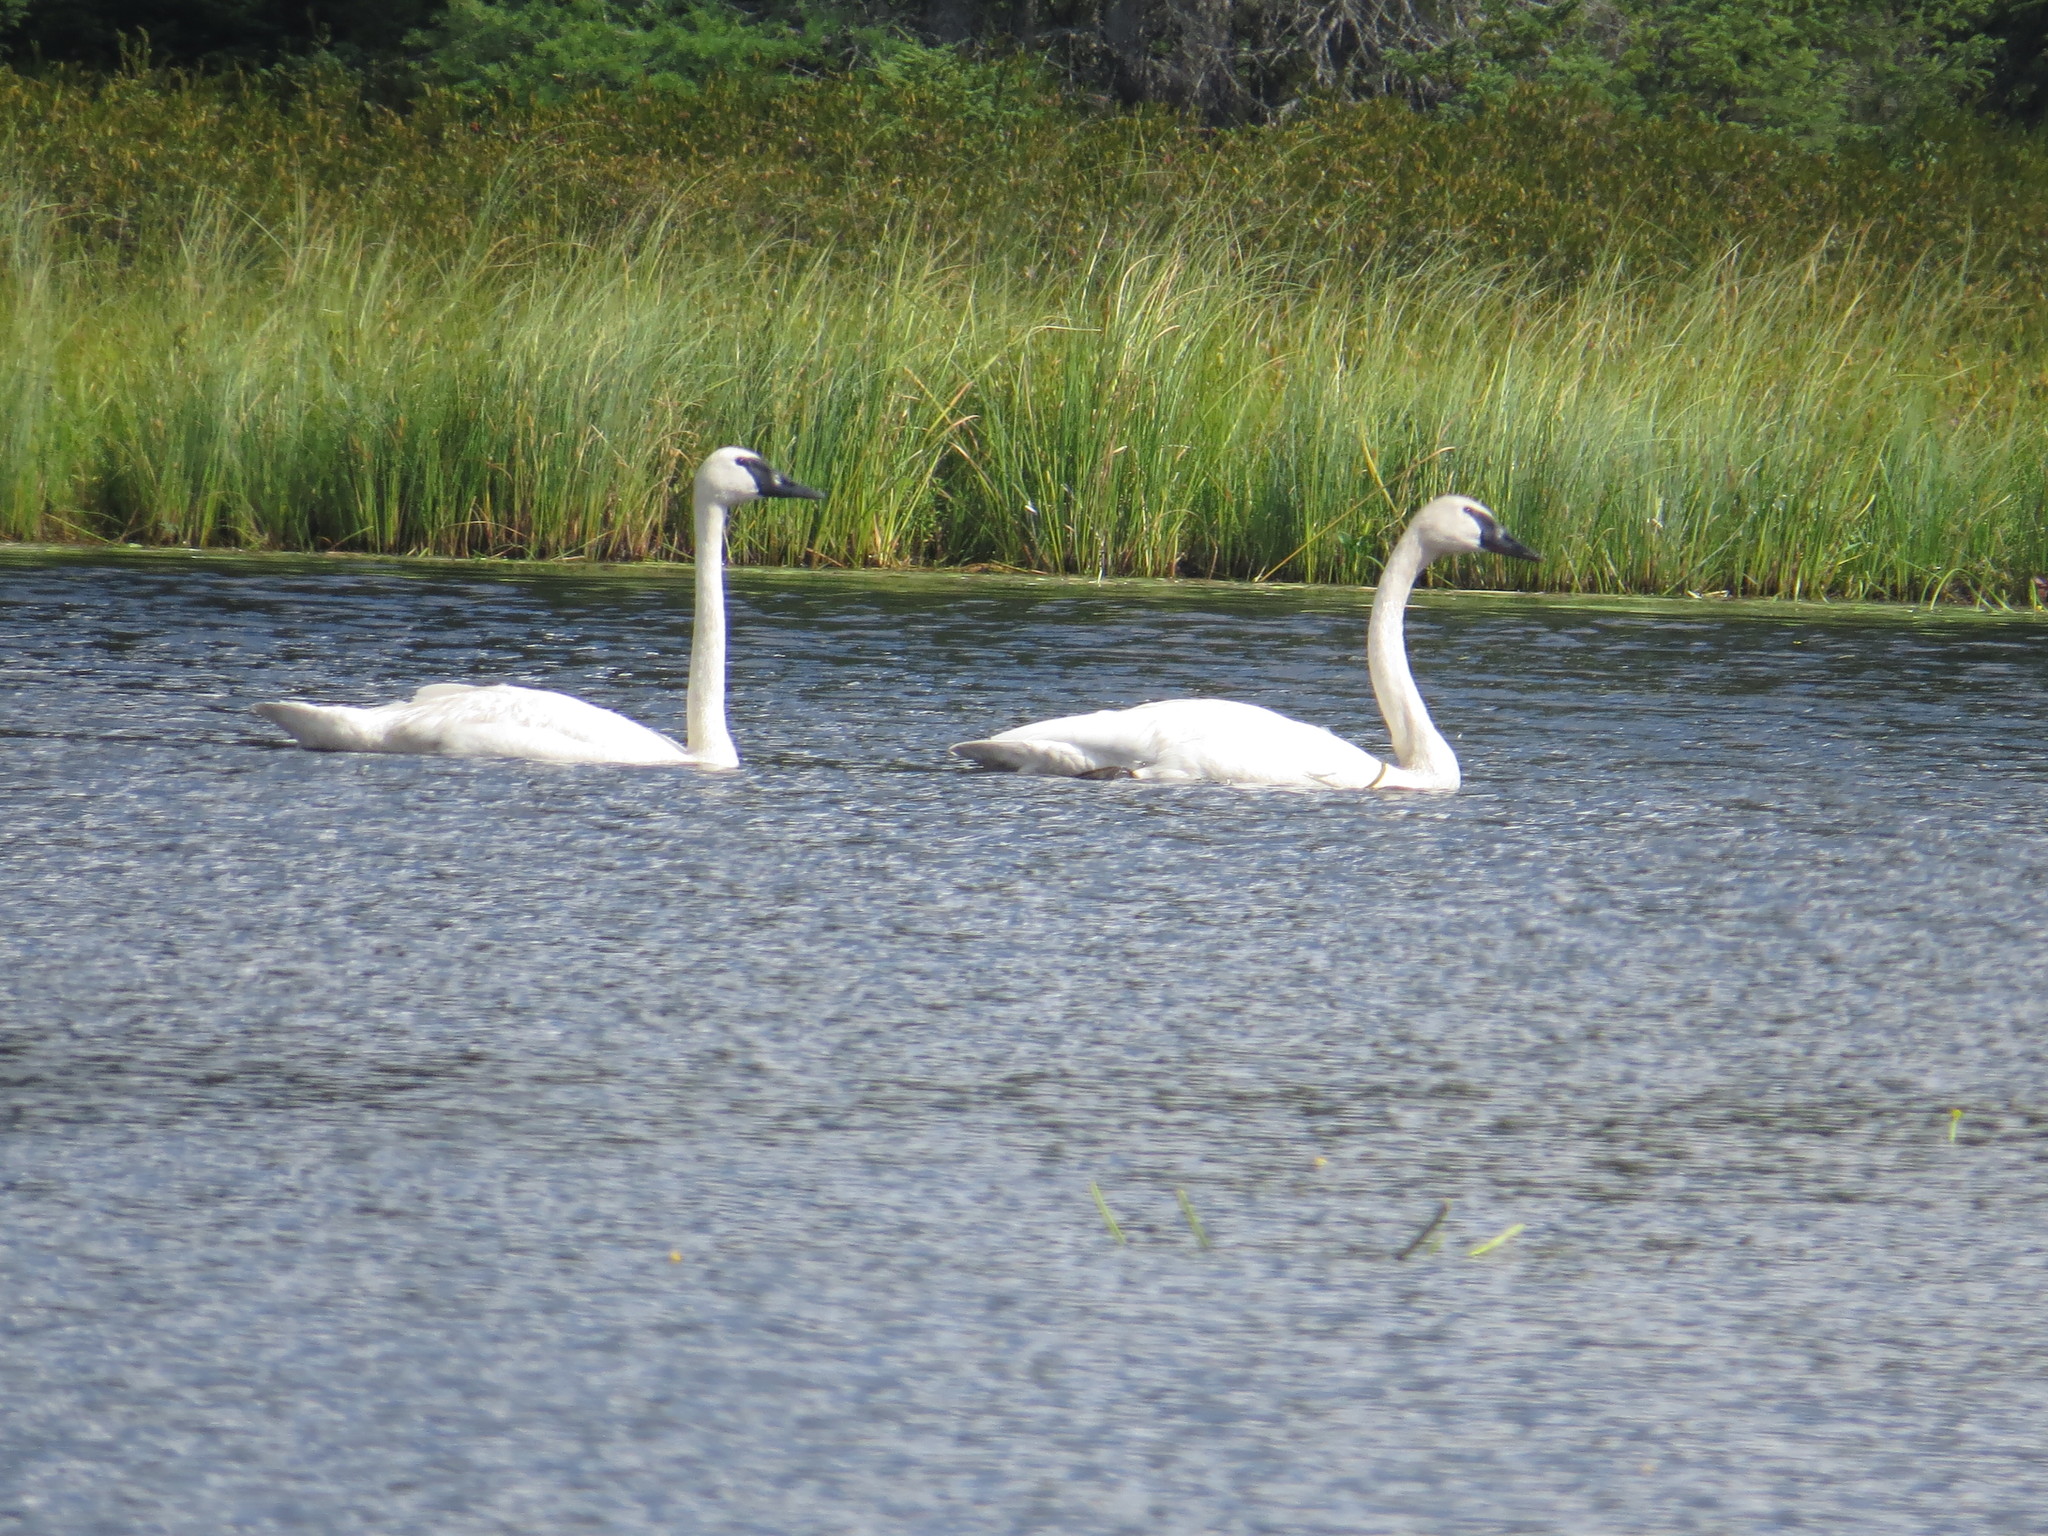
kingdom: Animalia
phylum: Chordata
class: Aves
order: Anseriformes
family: Anatidae
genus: Cygnus
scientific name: Cygnus buccinator
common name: Trumpeter swan
